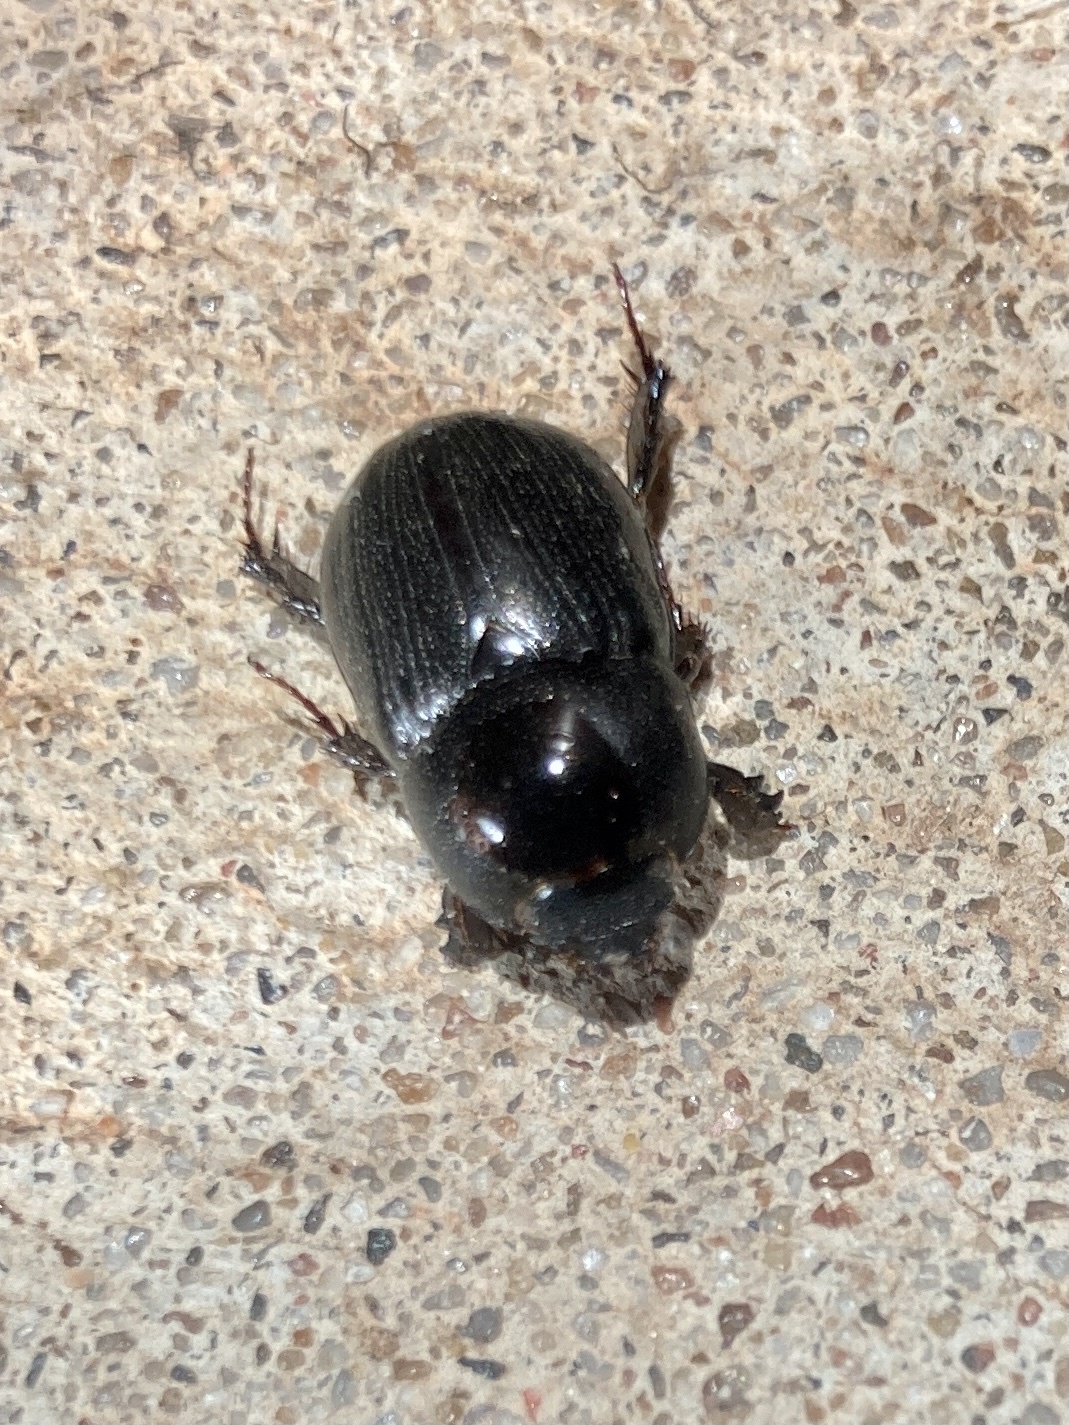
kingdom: Animalia
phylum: Arthropoda
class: Insecta
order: Coleoptera
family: Scarabaeidae
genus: Euetheola
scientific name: Euetheola humilis
